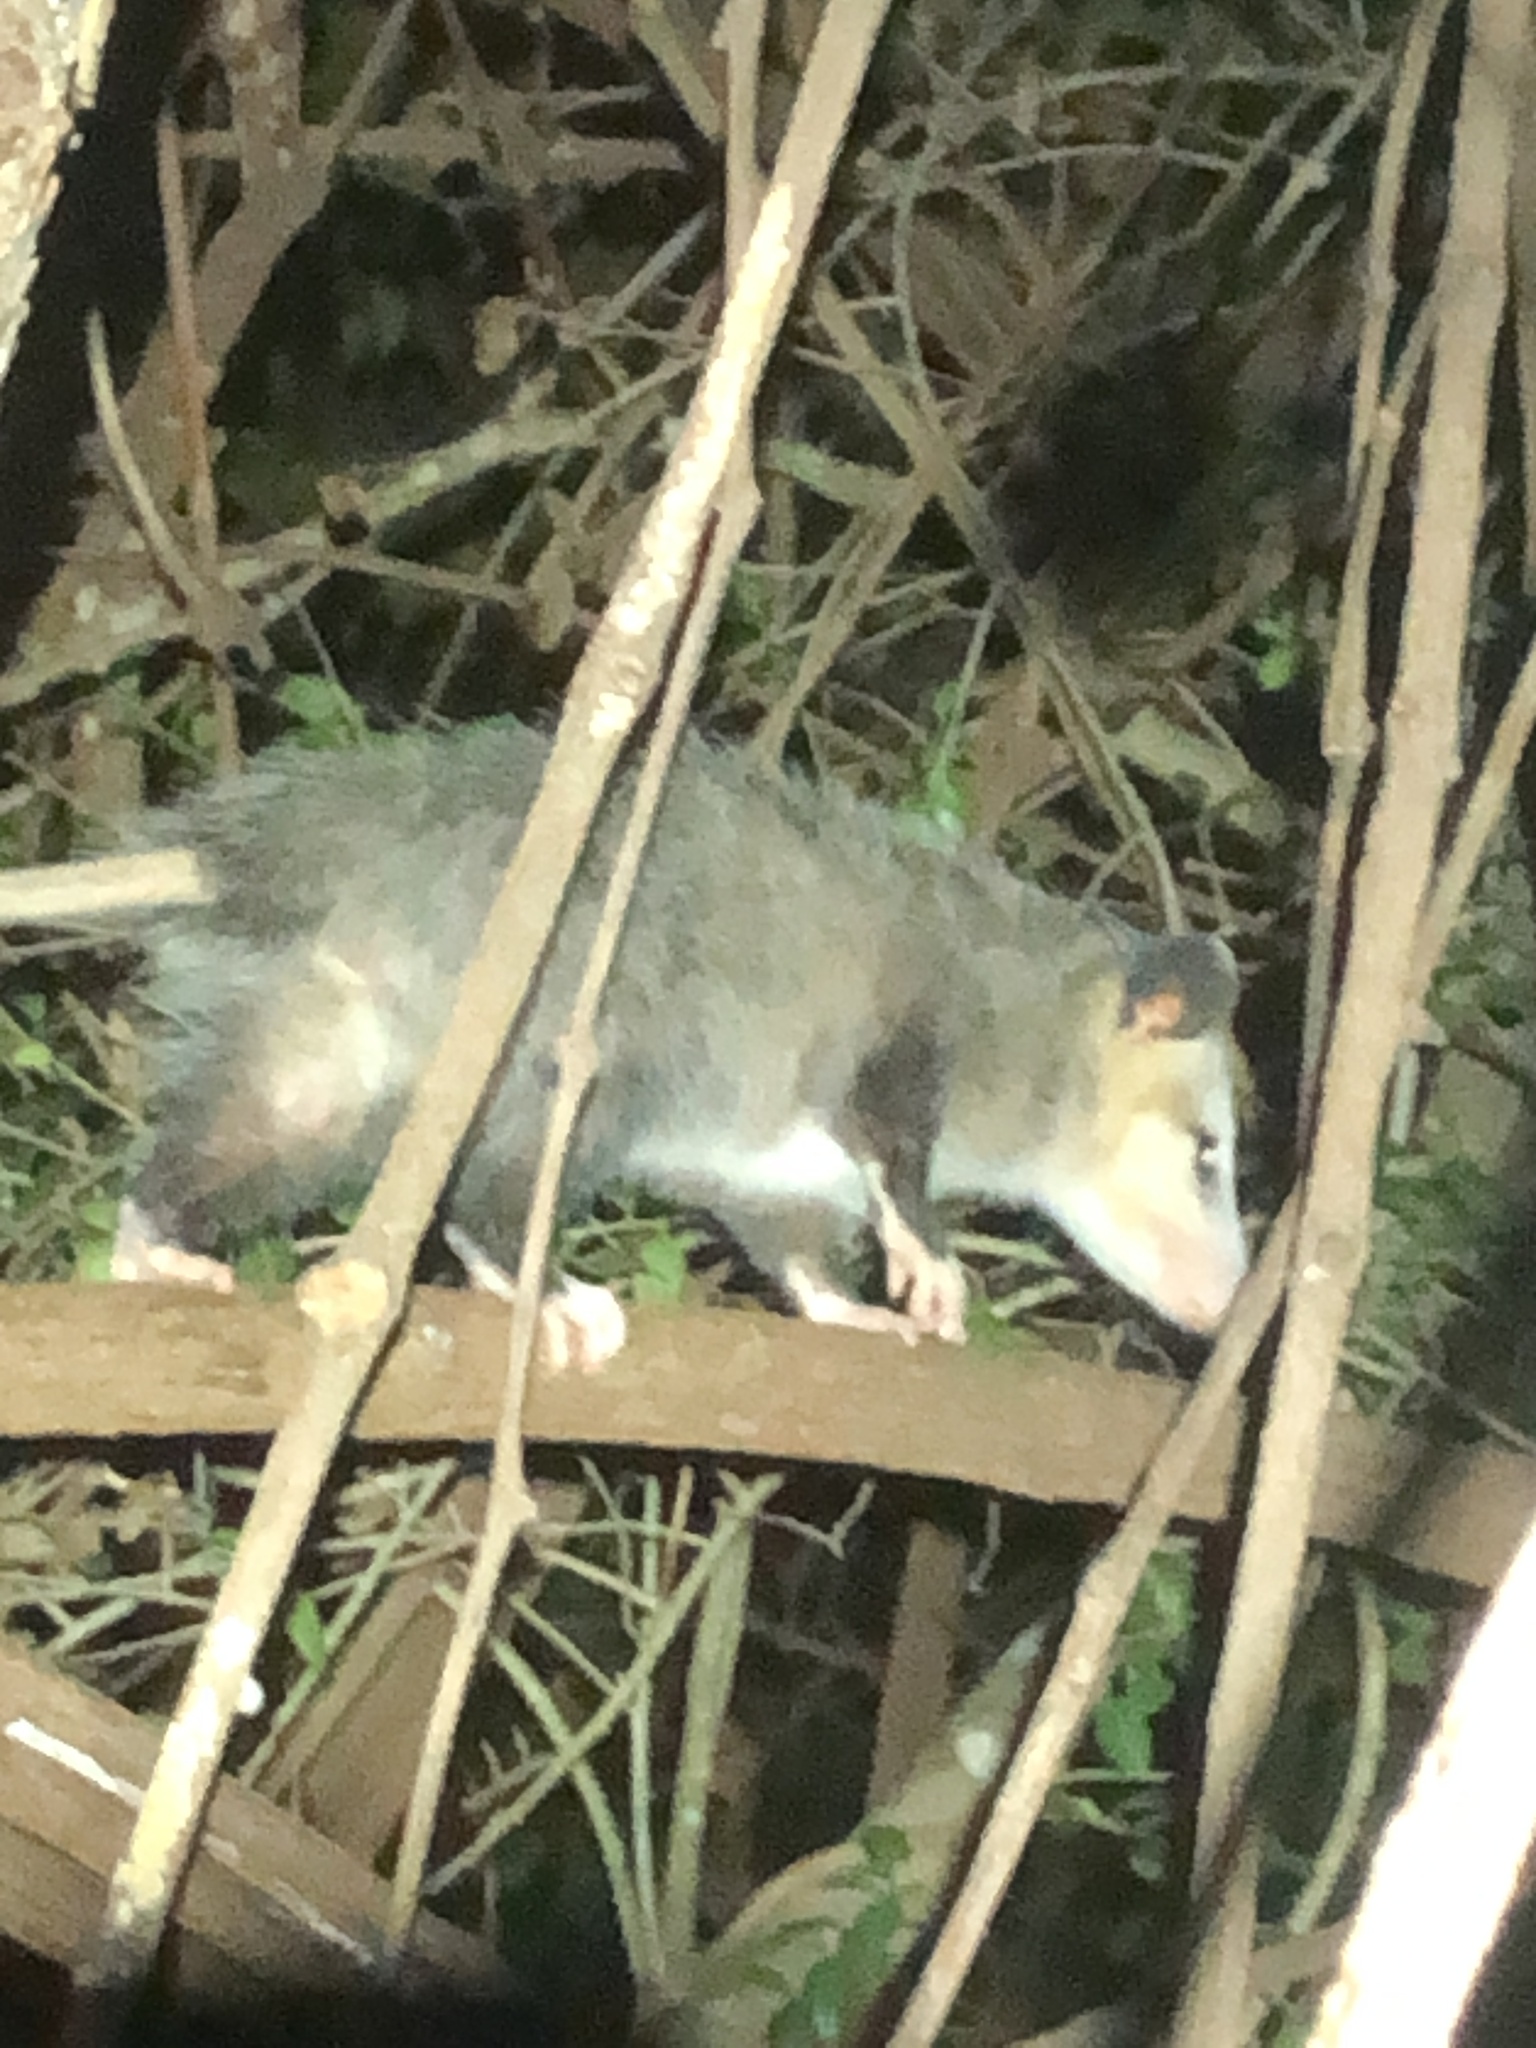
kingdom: Animalia
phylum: Chordata
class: Mammalia
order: Didelphimorphia
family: Didelphidae
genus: Didelphis
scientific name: Didelphis virginiana
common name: Virginia opossum
